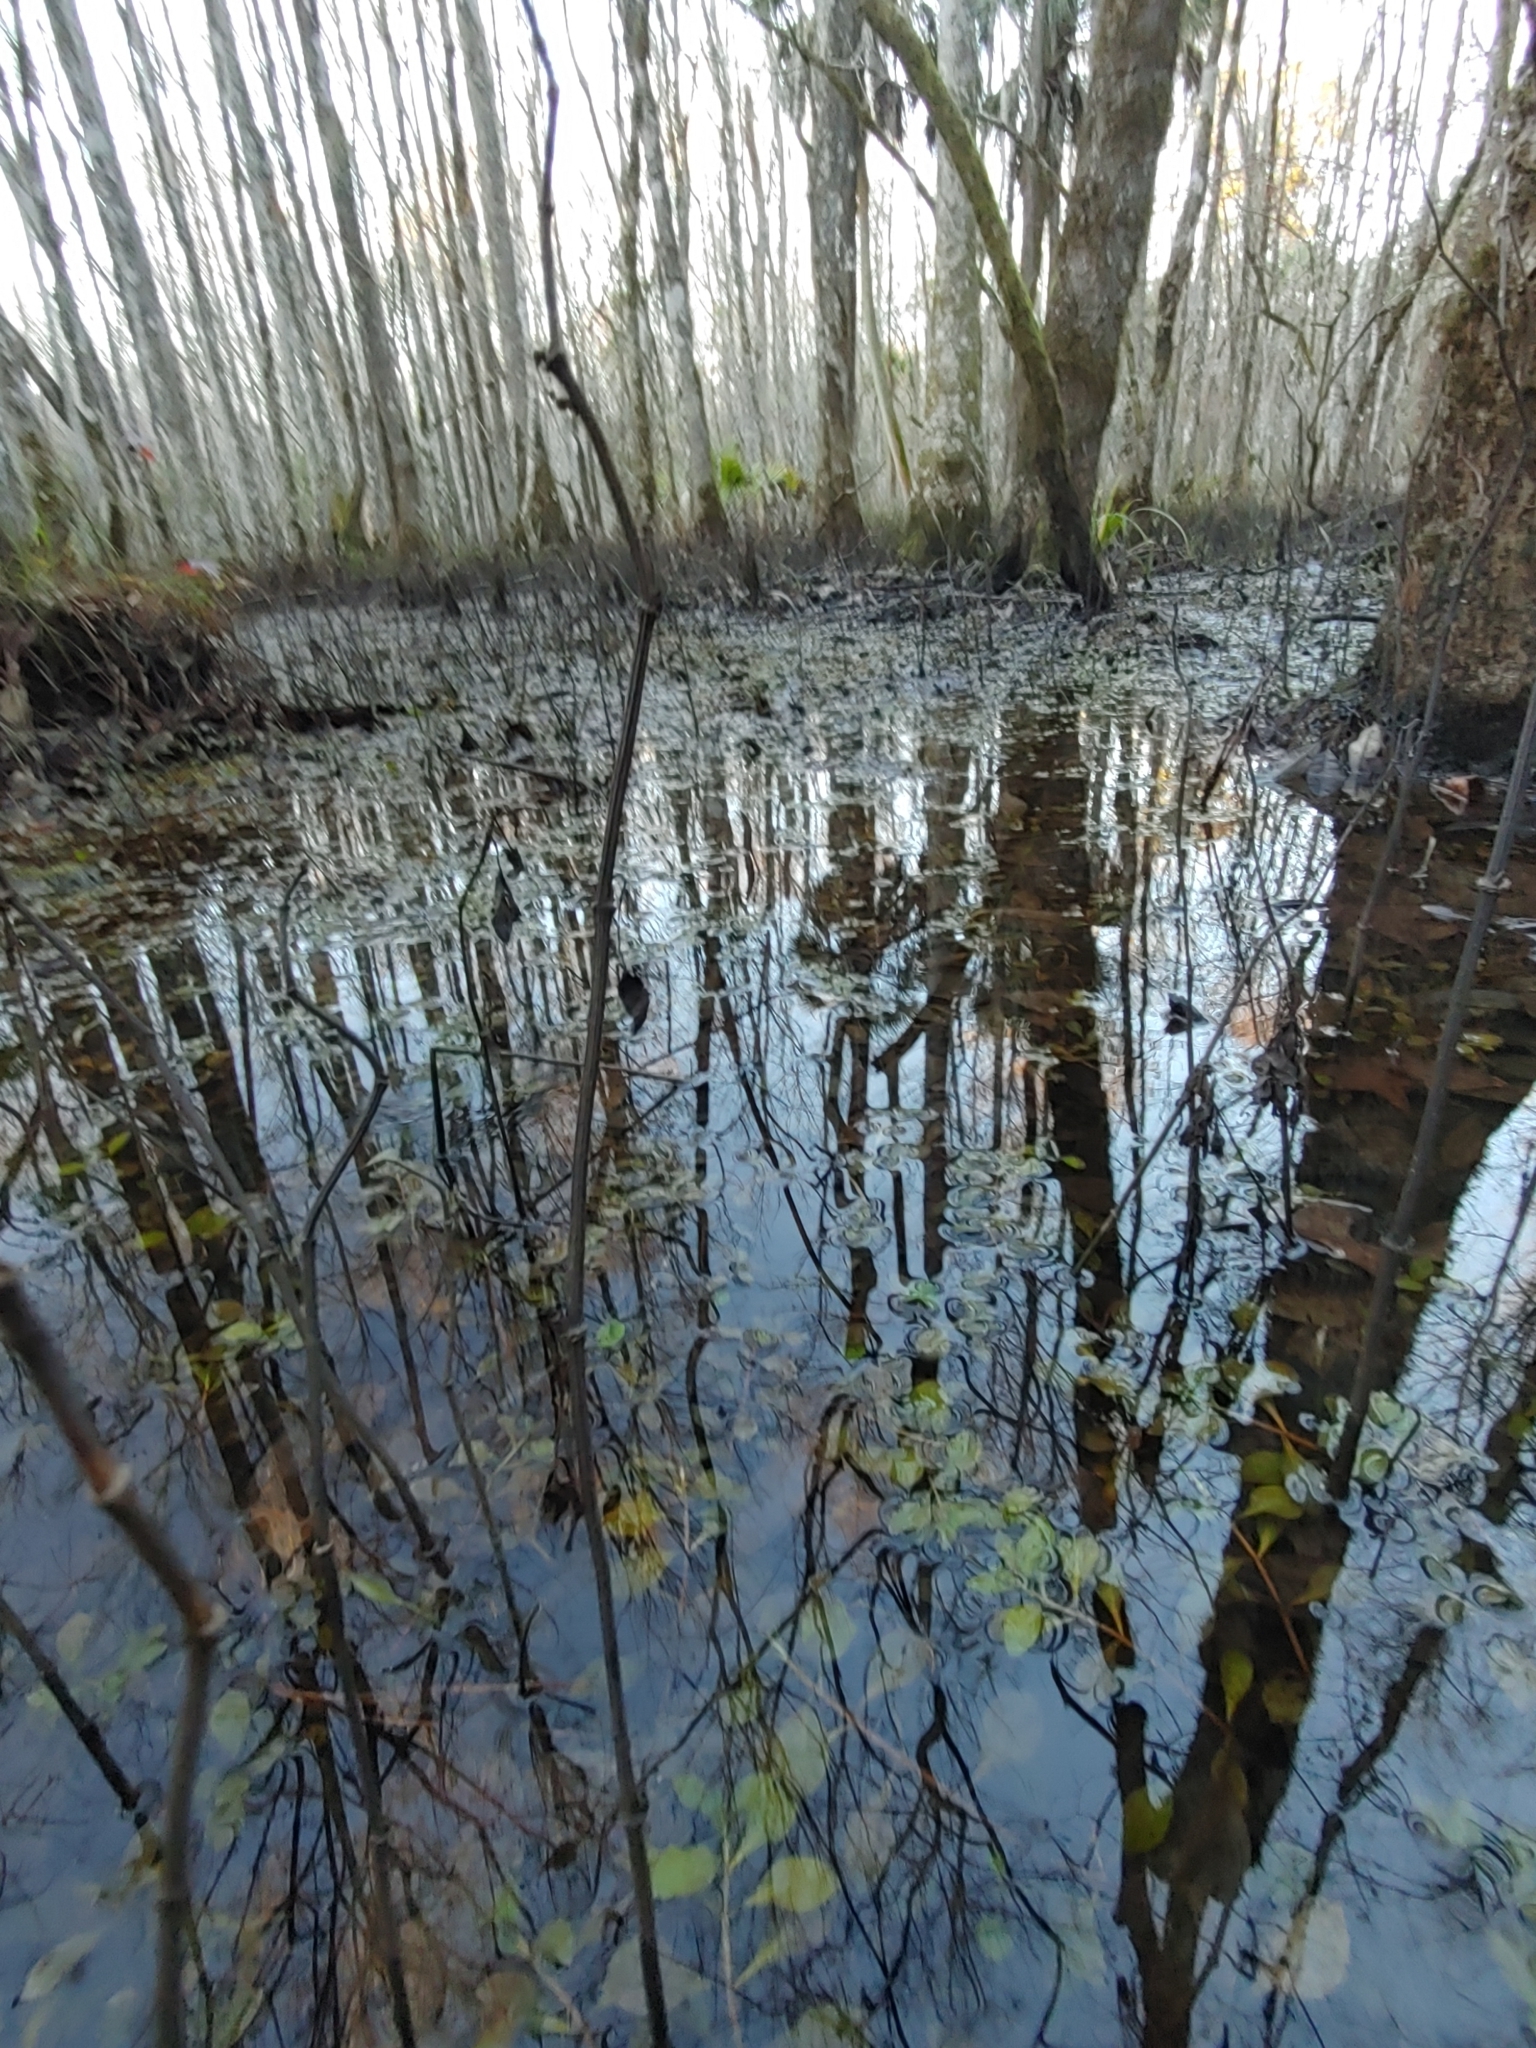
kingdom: Plantae
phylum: Tracheophyta
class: Magnoliopsida
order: Piperales
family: Saururaceae
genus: Saururus
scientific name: Saururus cernuus
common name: Lizard's-tail
